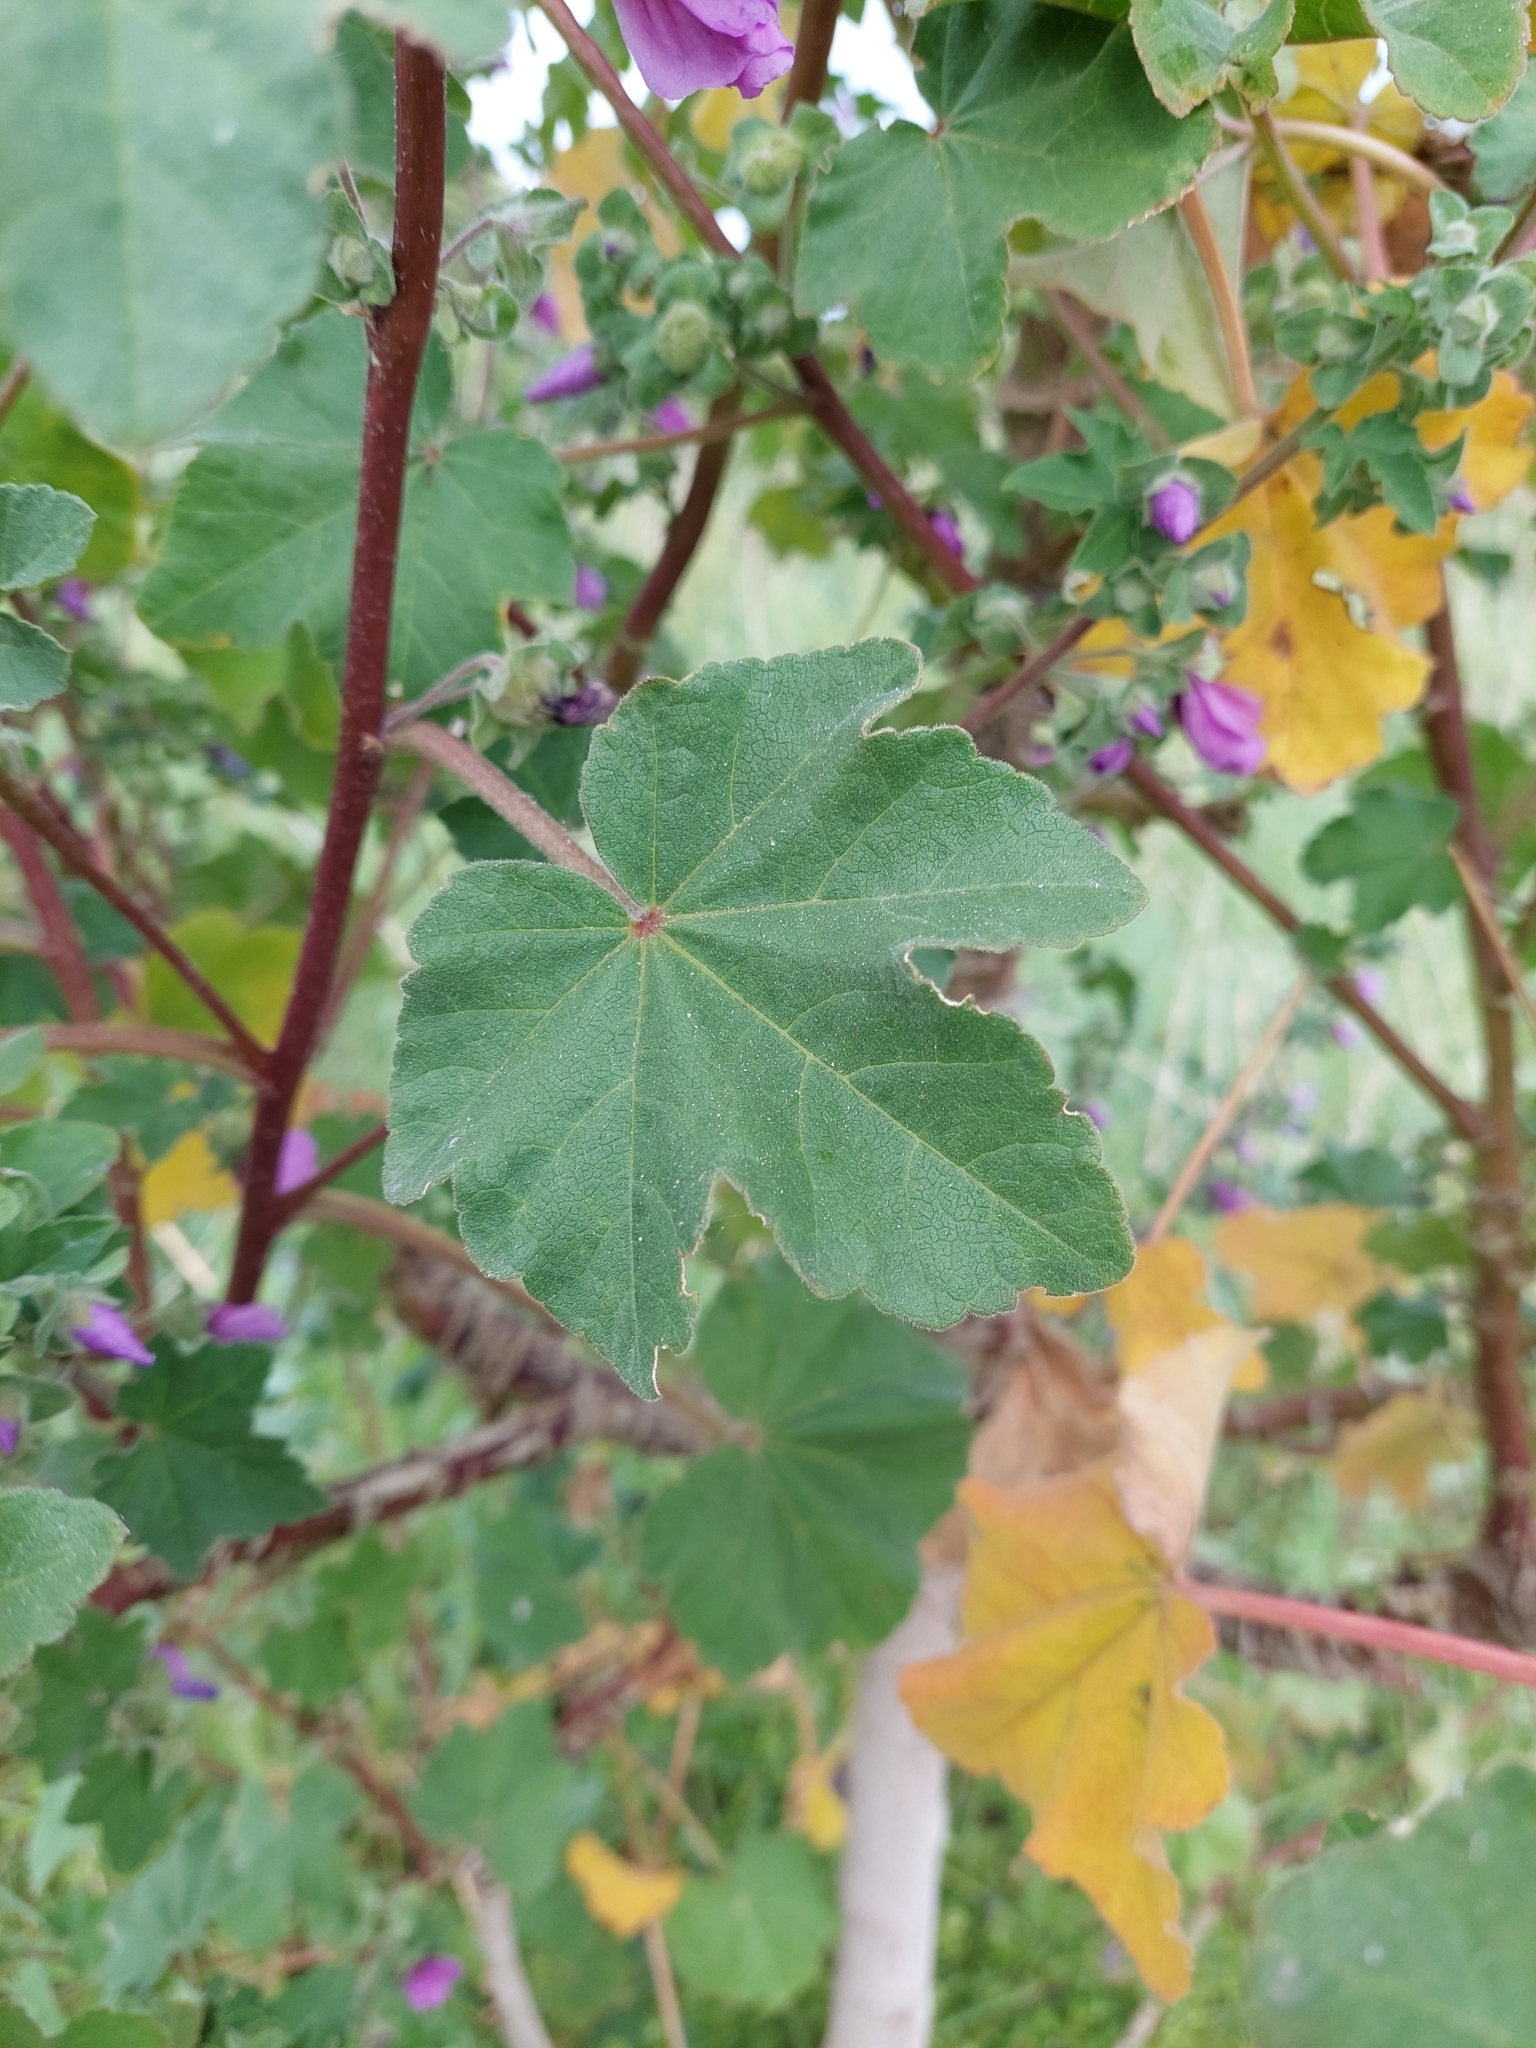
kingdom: Plantae
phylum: Tracheophyta
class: Magnoliopsida
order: Malvales
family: Malvaceae
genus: Malva
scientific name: Malva arborea
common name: Tree mallow
